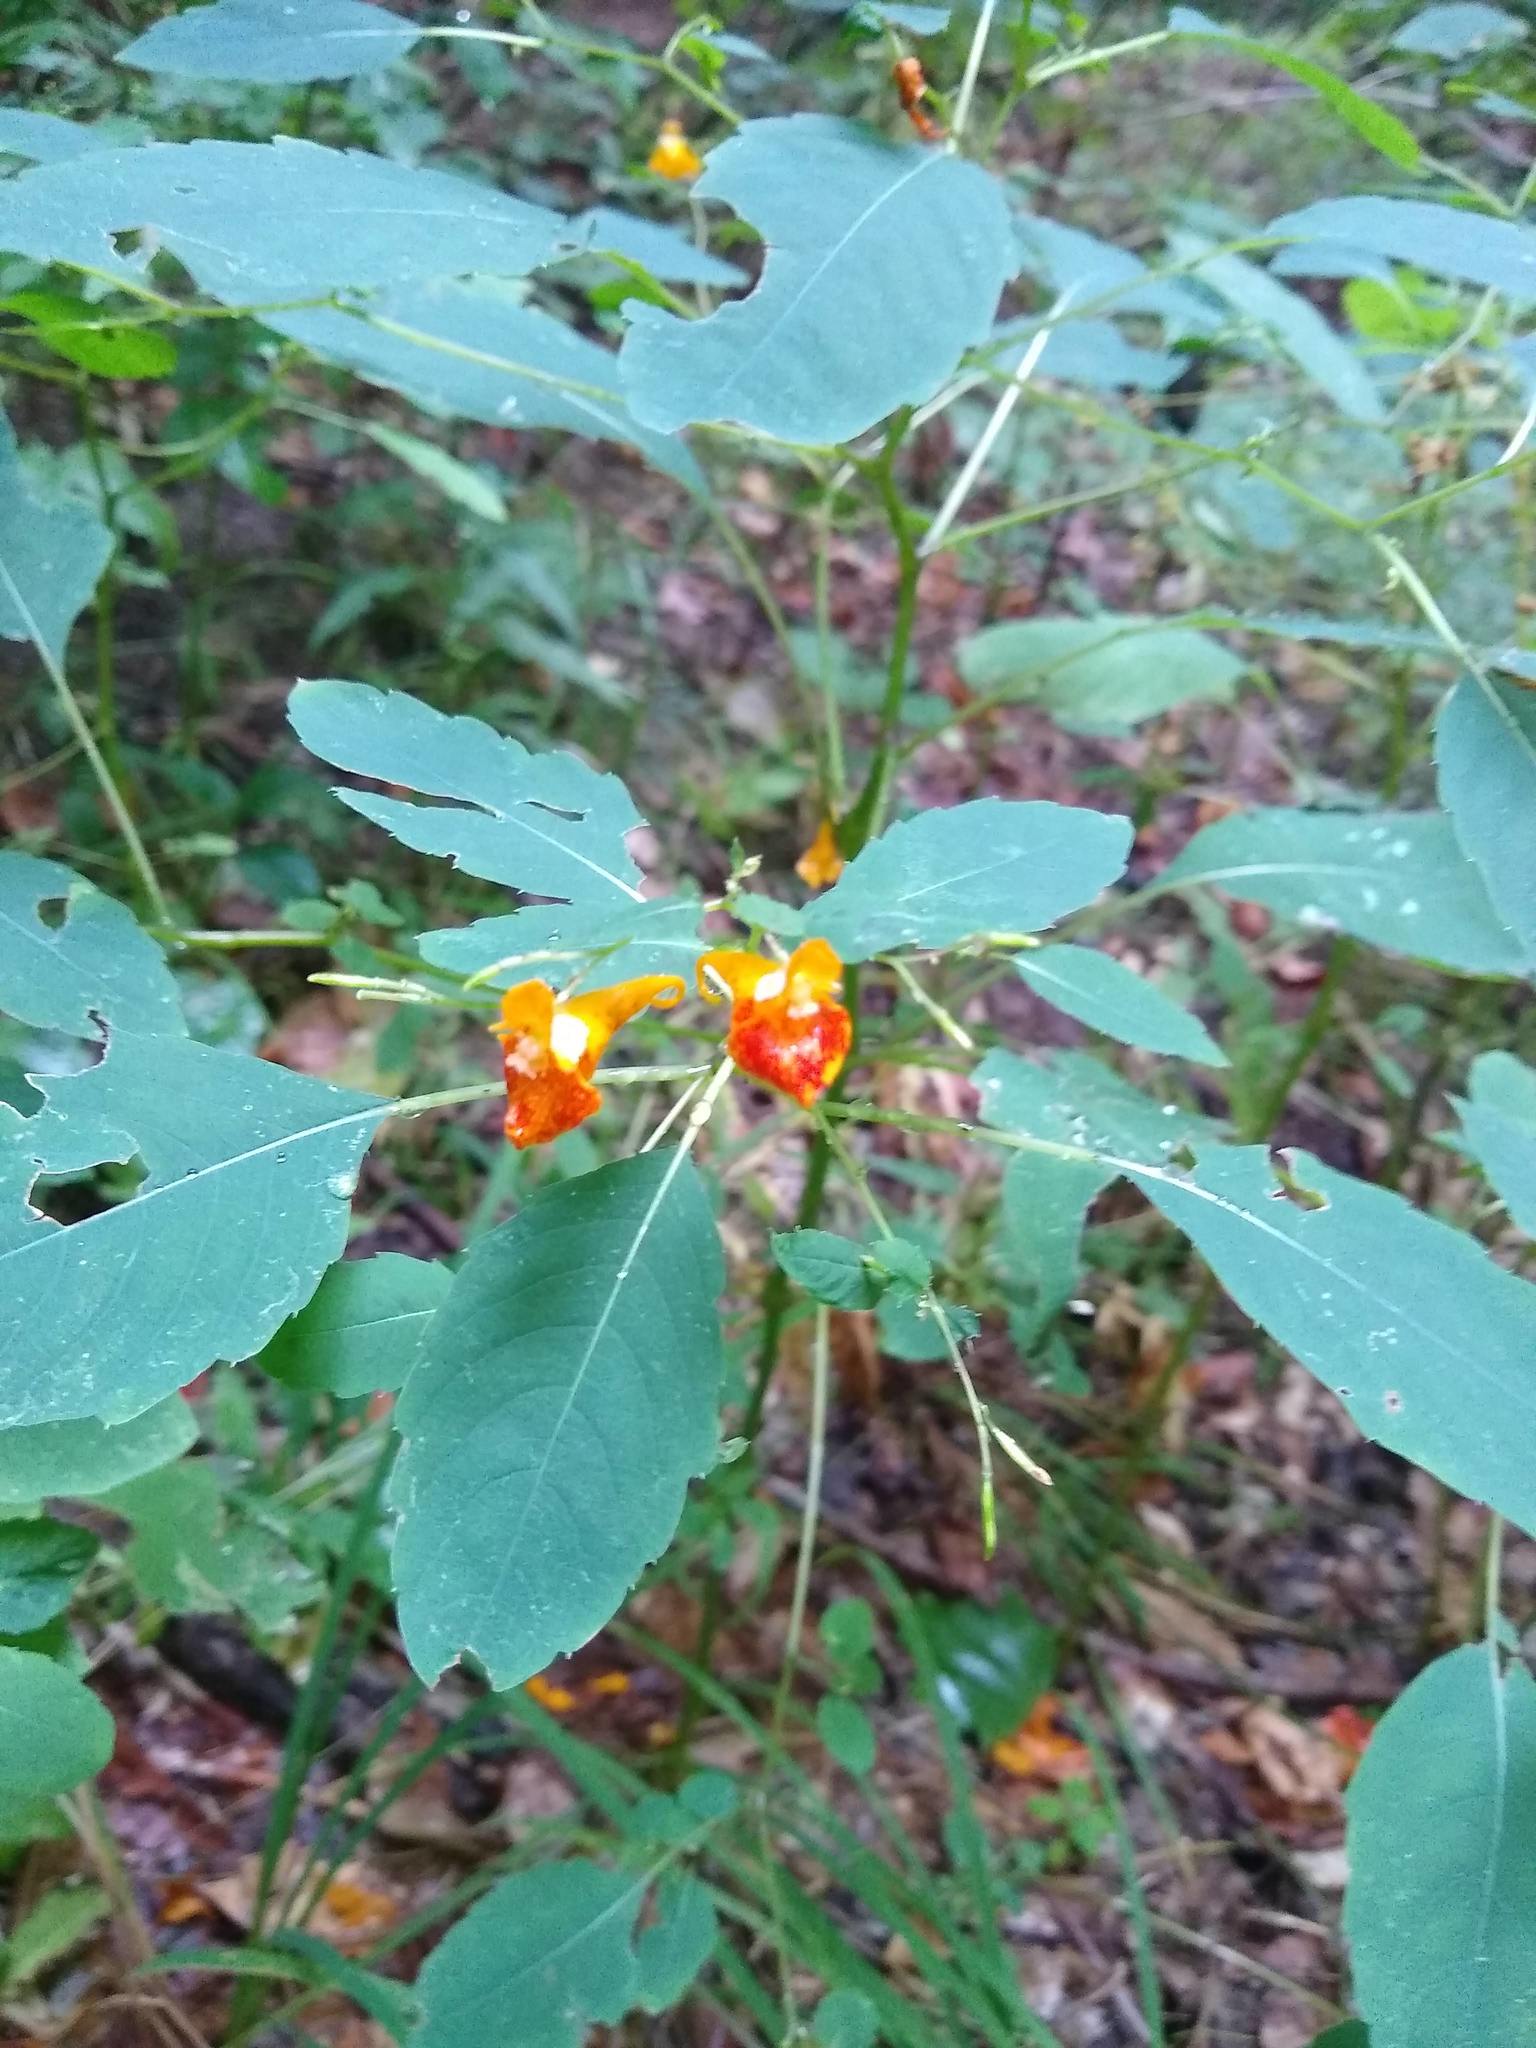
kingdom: Plantae
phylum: Tracheophyta
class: Magnoliopsida
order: Ericales
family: Balsaminaceae
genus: Impatiens
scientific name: Impatiens capensis
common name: Orange balsam
